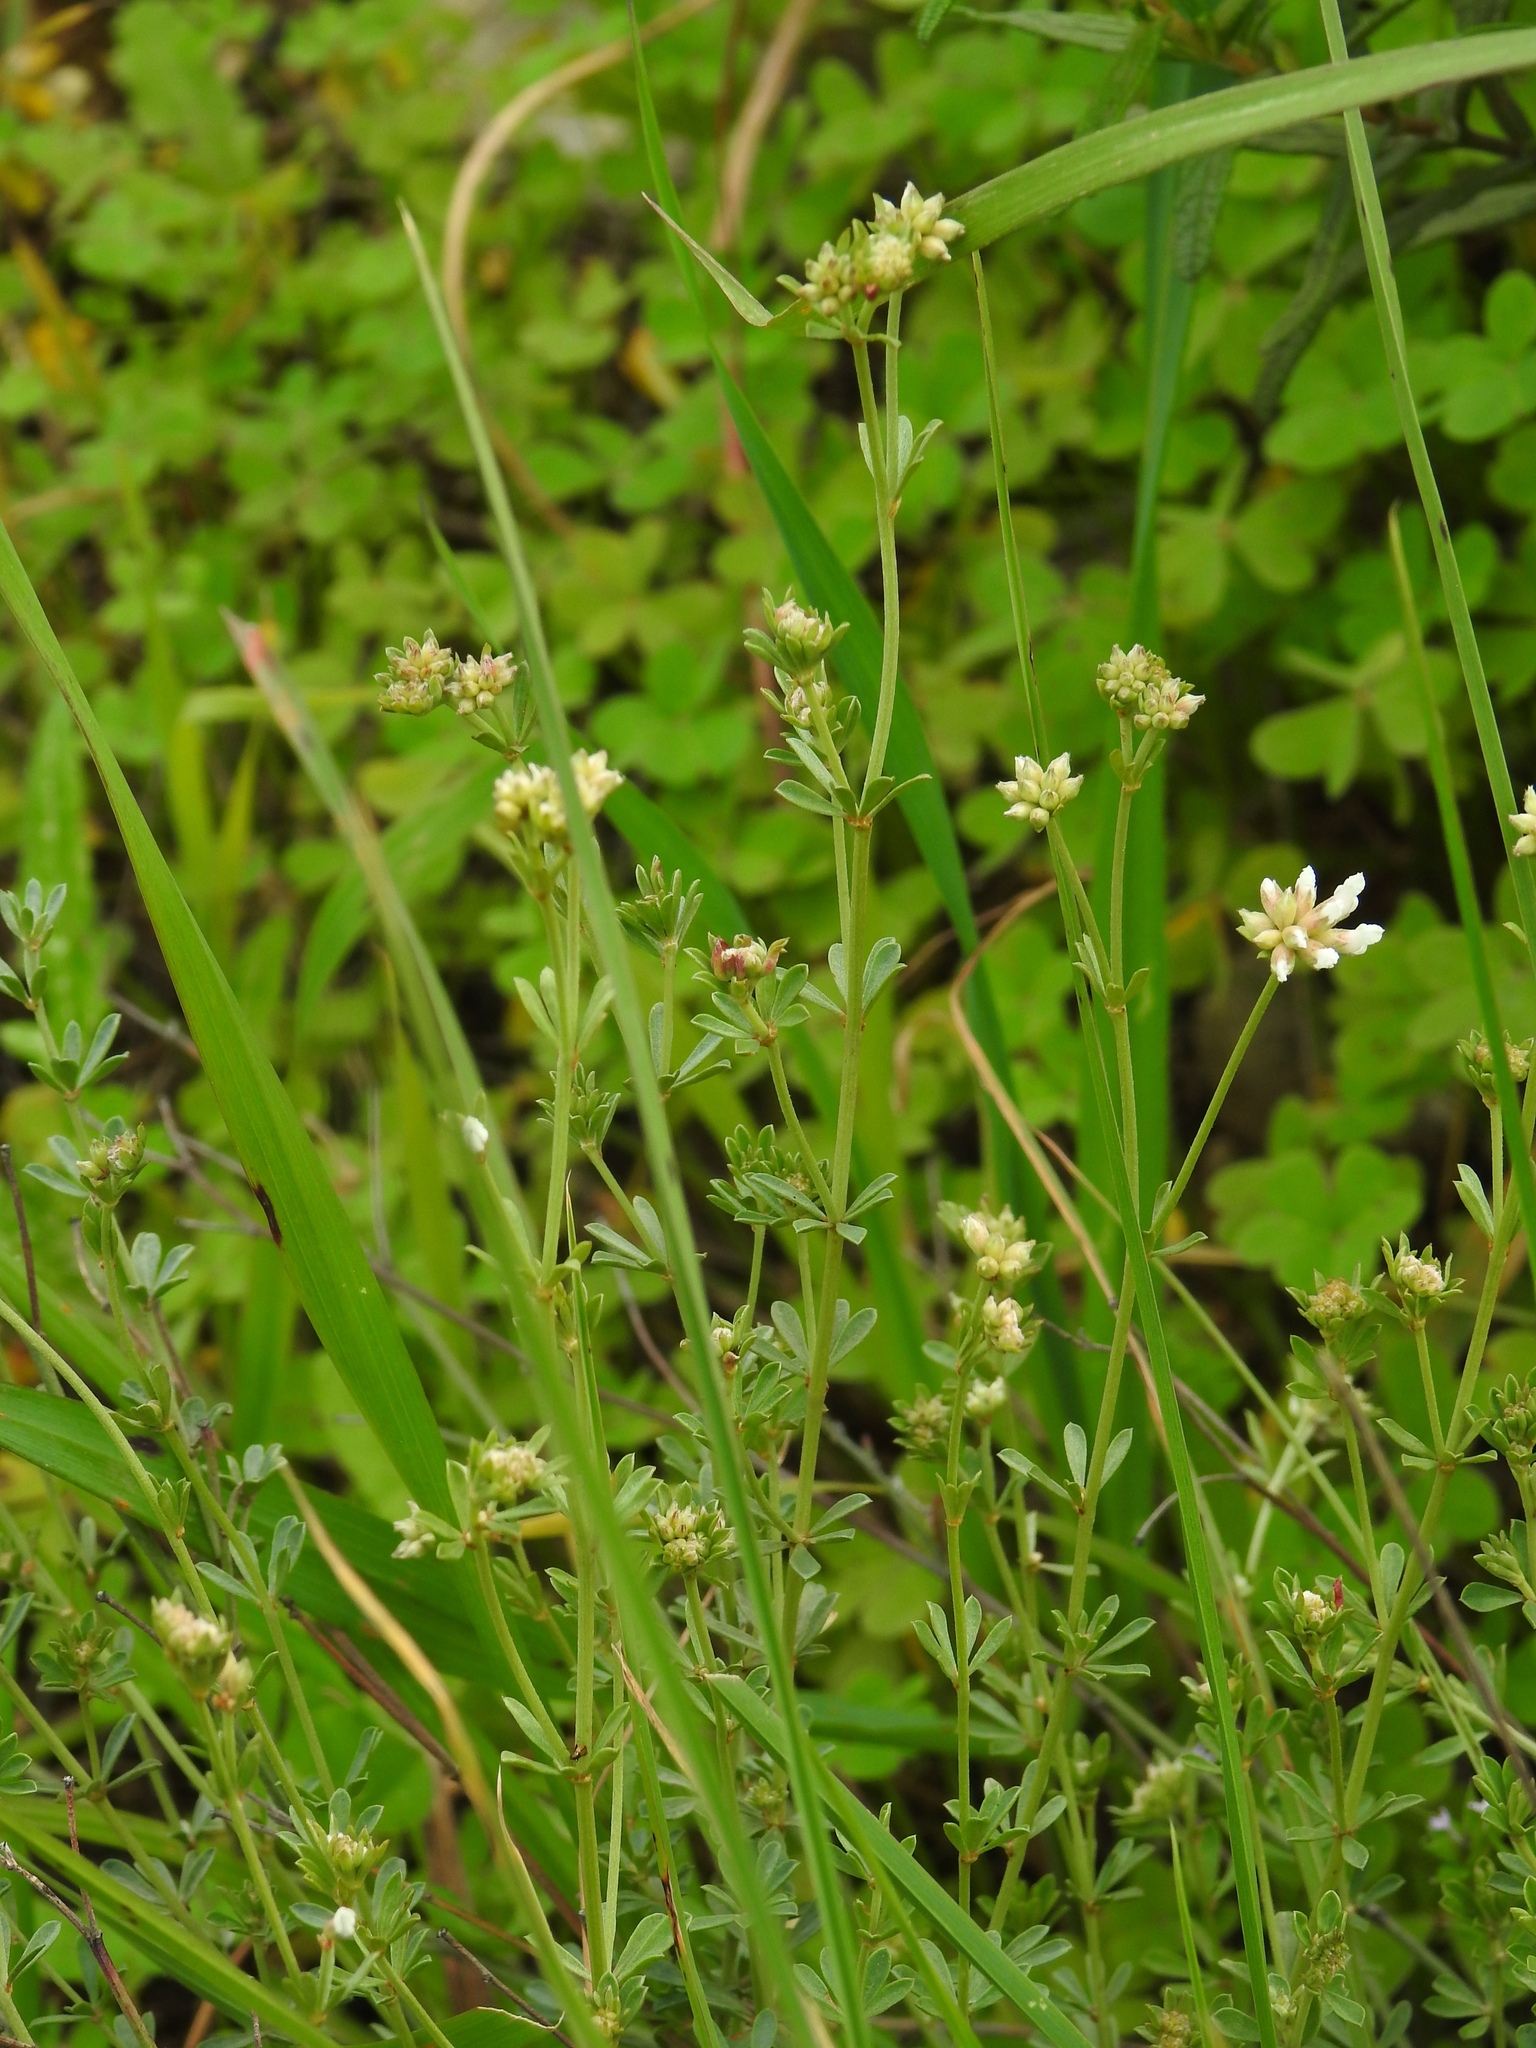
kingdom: Plantae
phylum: Tracheophyta
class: Magnoliopsida
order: Fabales
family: Fabaceae
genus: Lotus
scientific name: Lotus dorycnium
